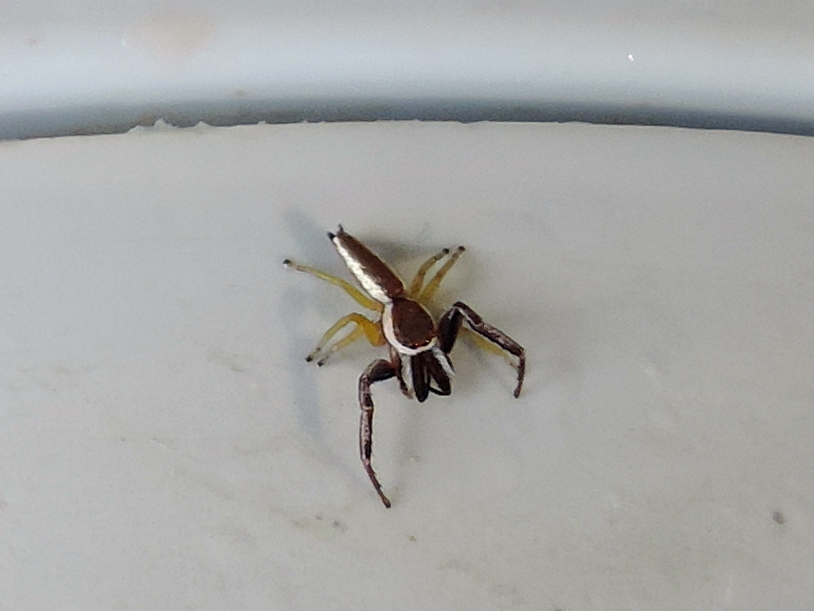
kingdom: Animalia
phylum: Arthropoda
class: Arachnida
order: Araneae
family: Salticidae
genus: Hentzia
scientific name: Hentzia palmarum
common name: Common hentz jumping spider
